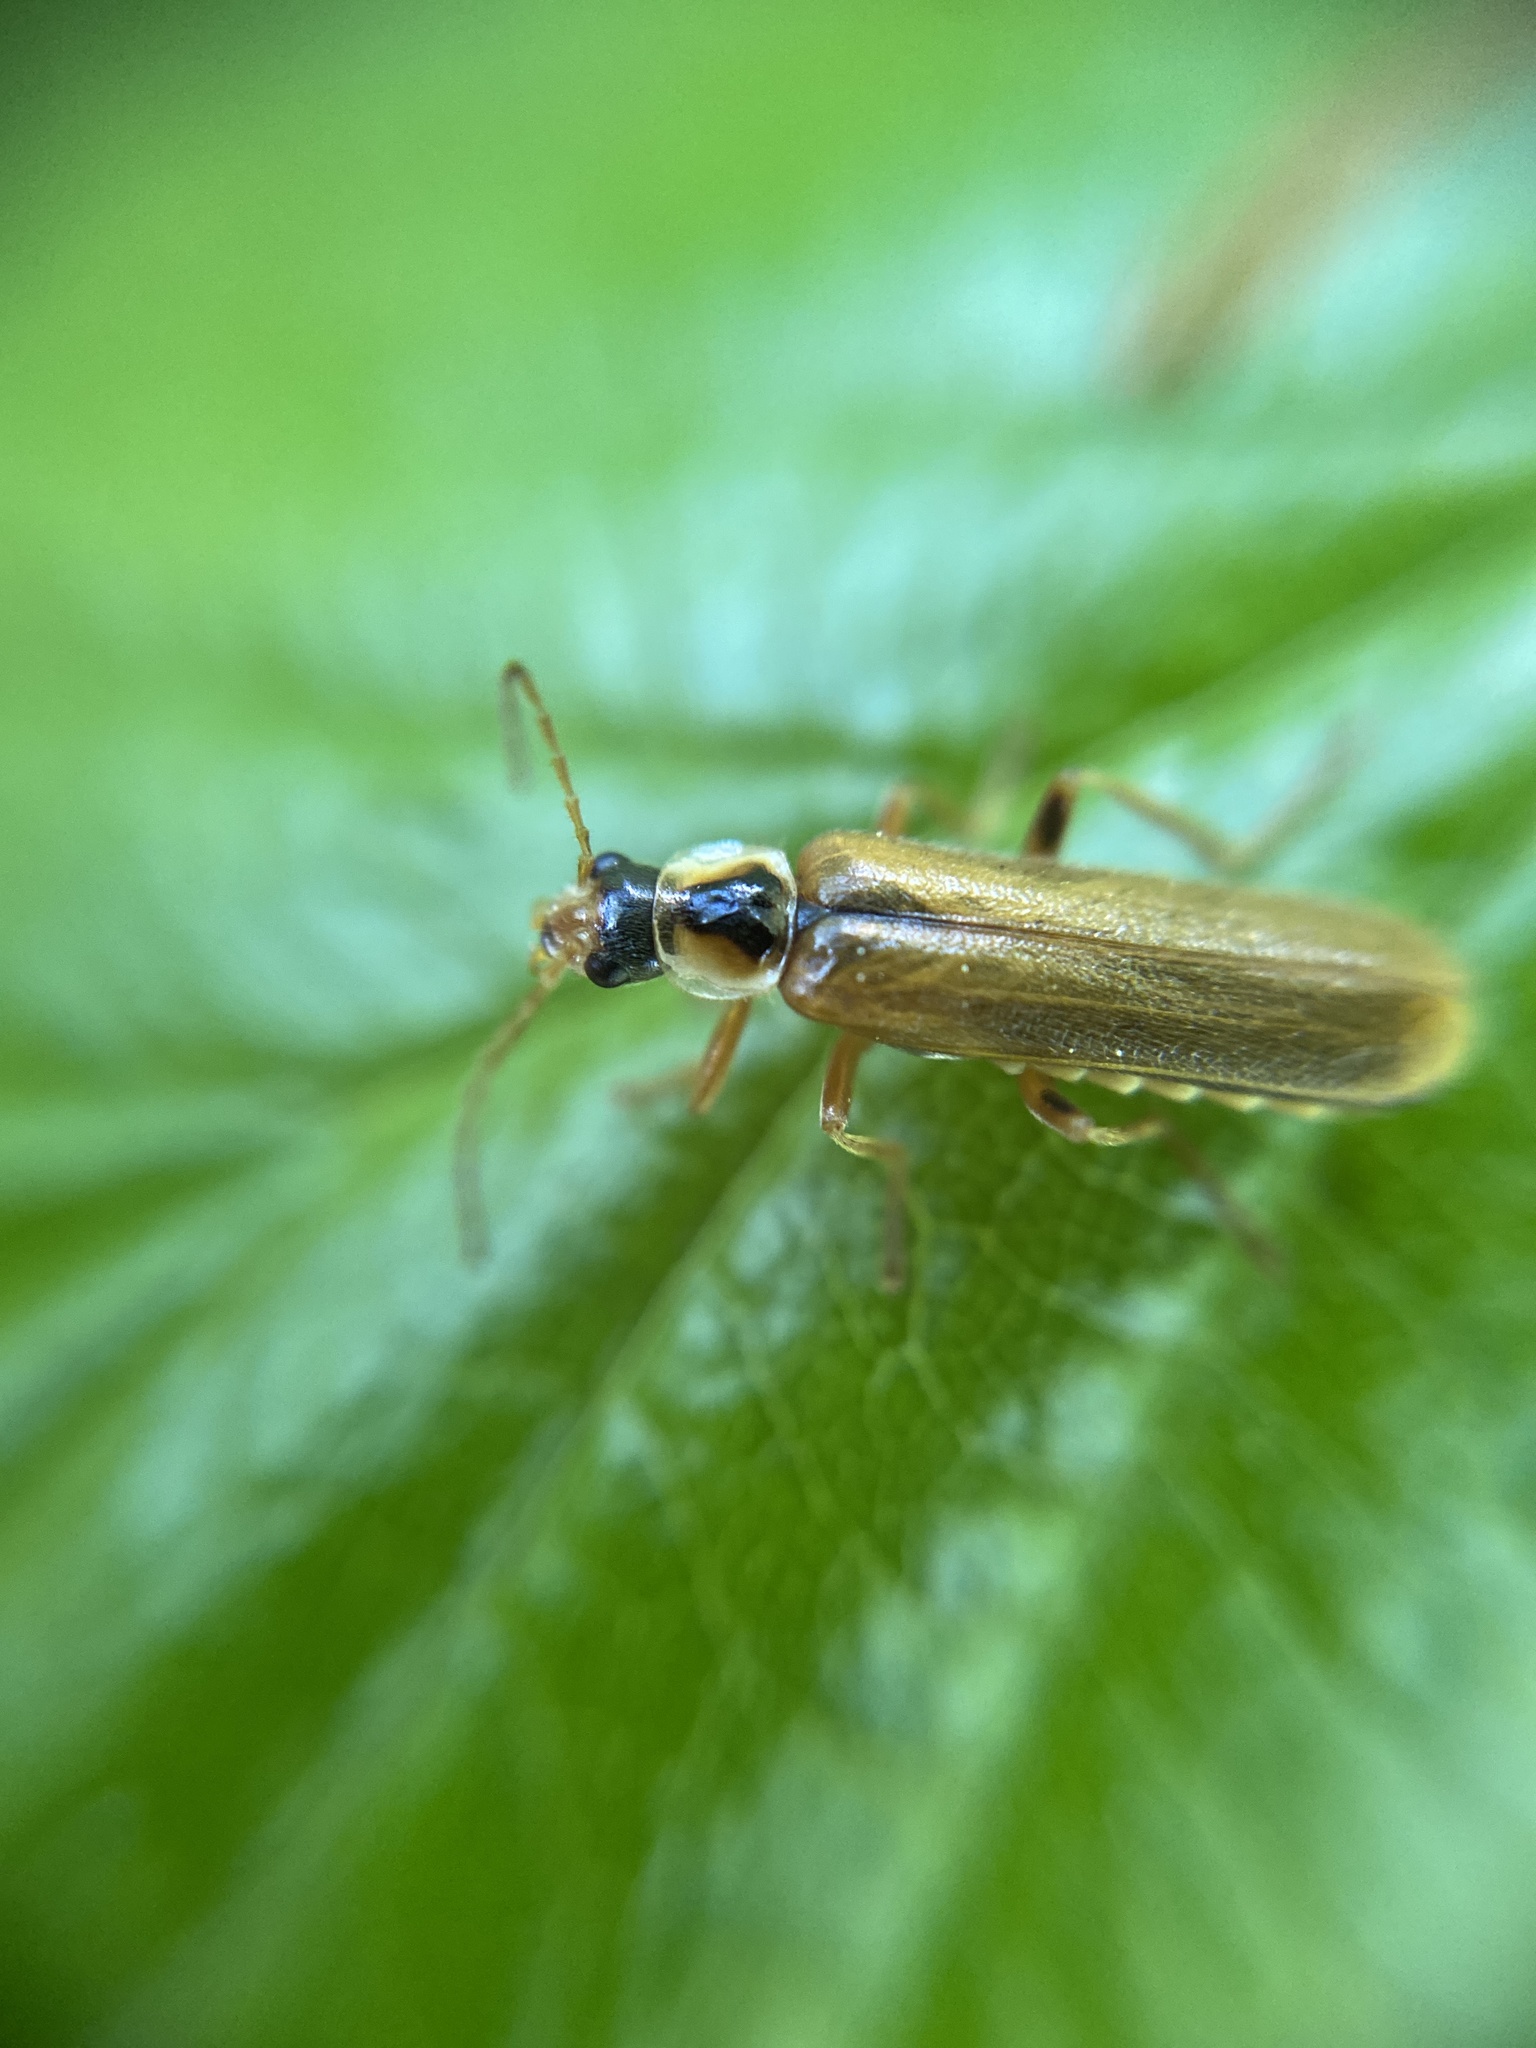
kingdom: Animalia
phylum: Arthropoda
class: Insecta
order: Coleoptera
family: Cantharidae
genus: Cantharis
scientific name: Cantharis decipiens
